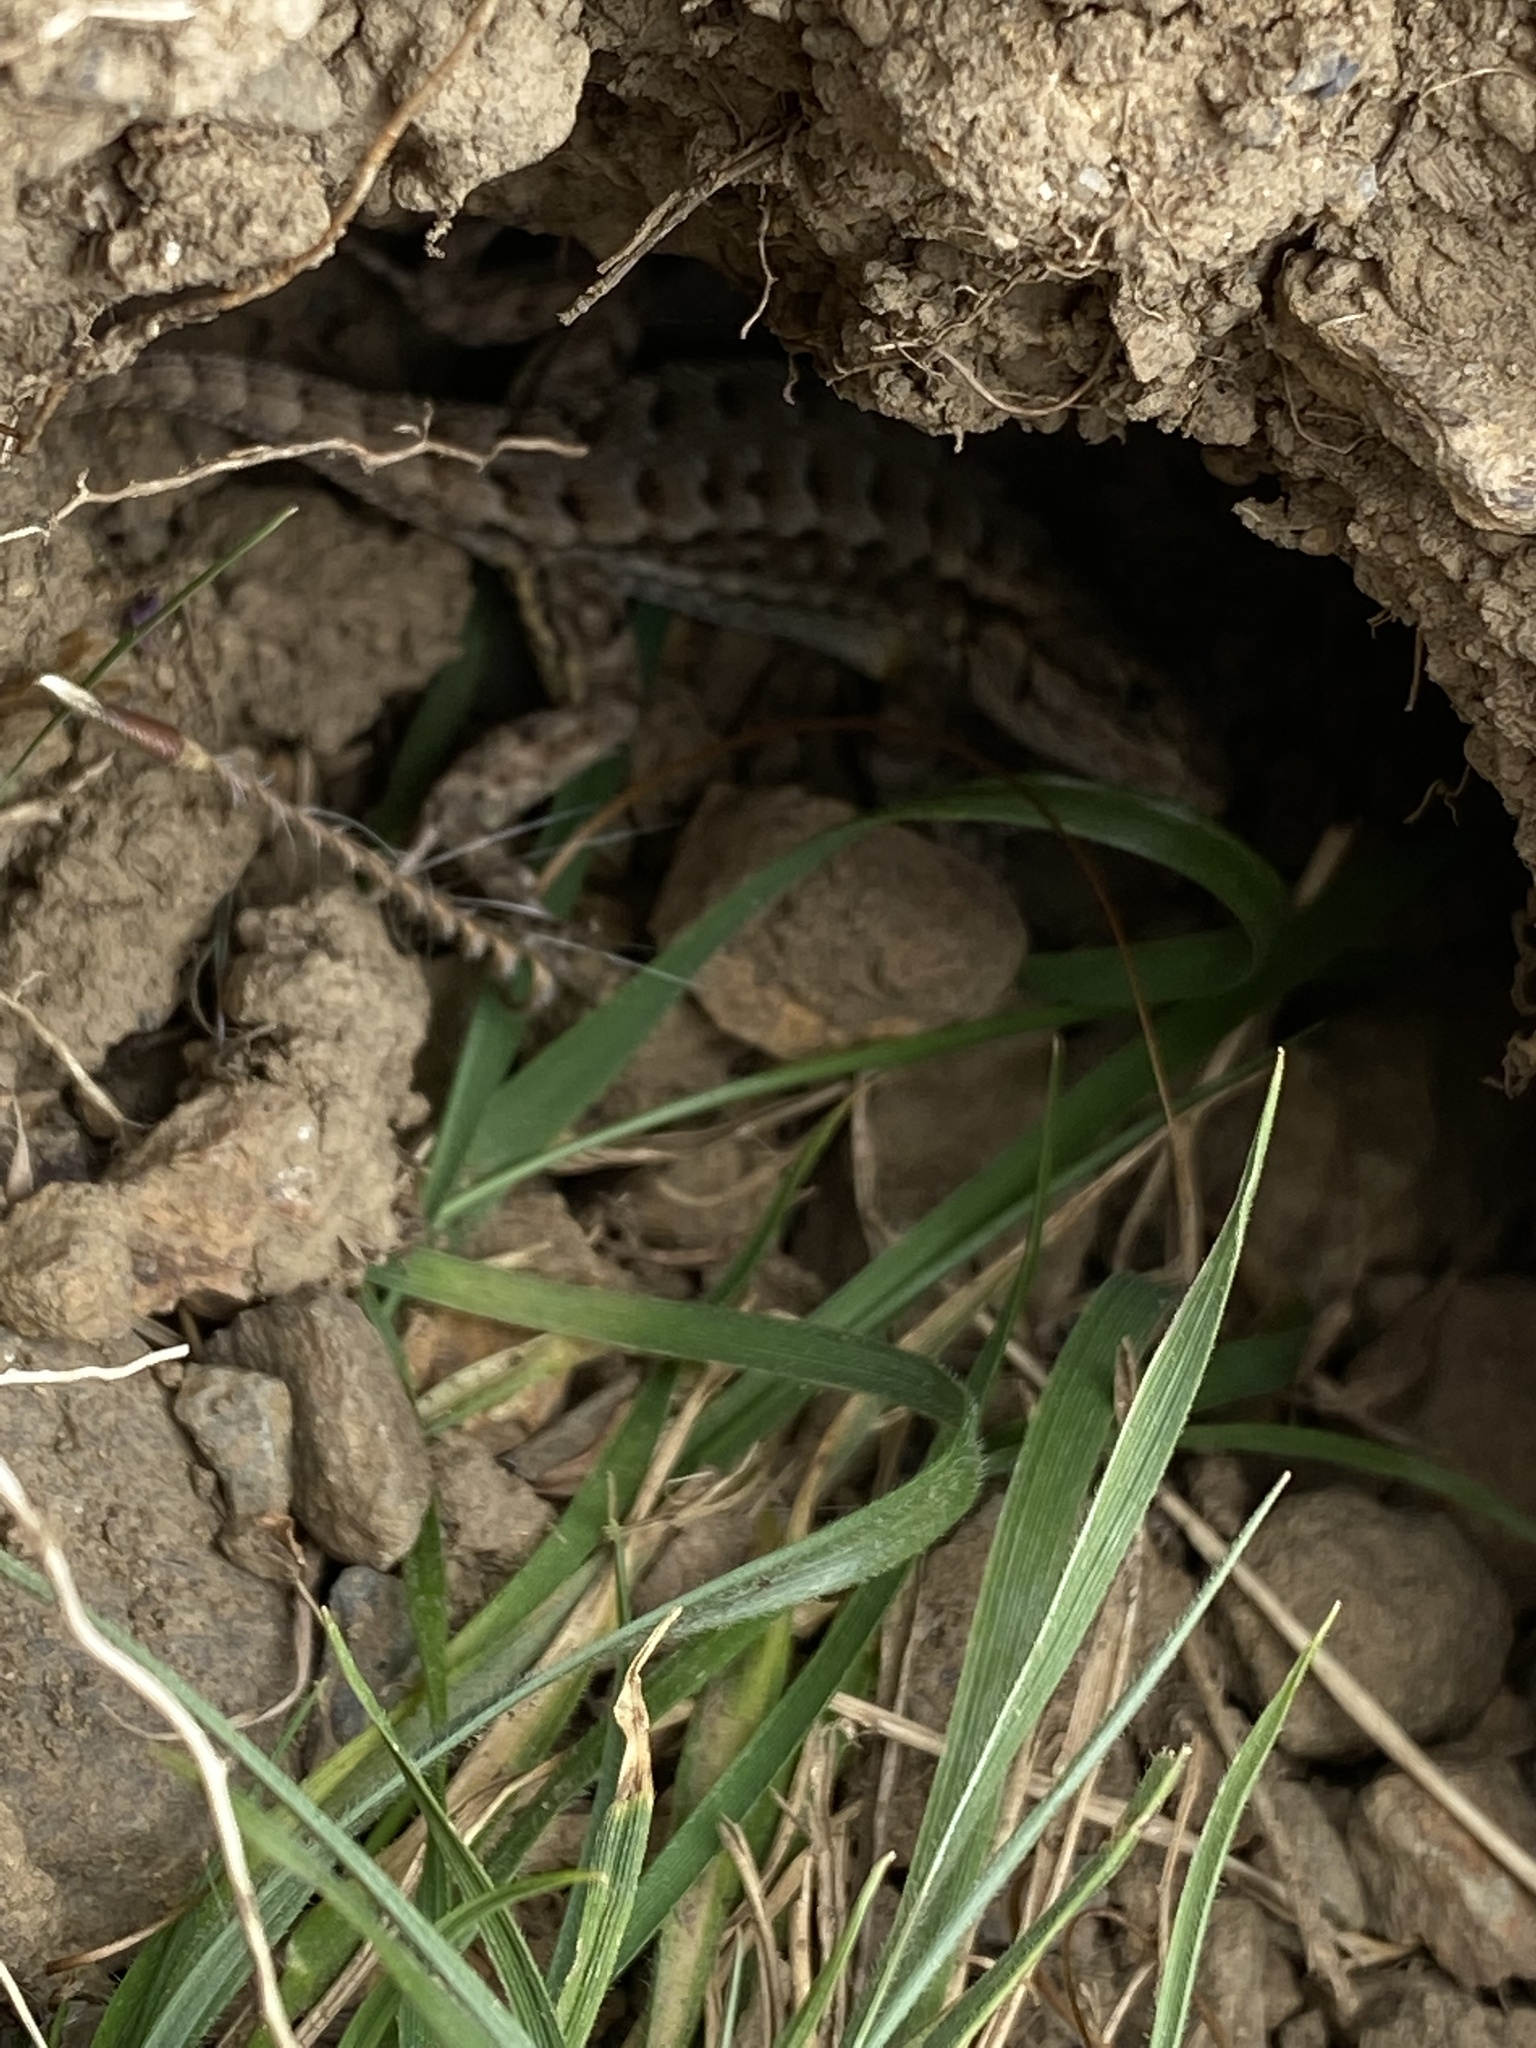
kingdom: Animalia
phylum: Chordata
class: Squamata
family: Phrynosomatidae
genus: Sceloporus
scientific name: Sceloporus occidentalis
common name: Western fence lizard
